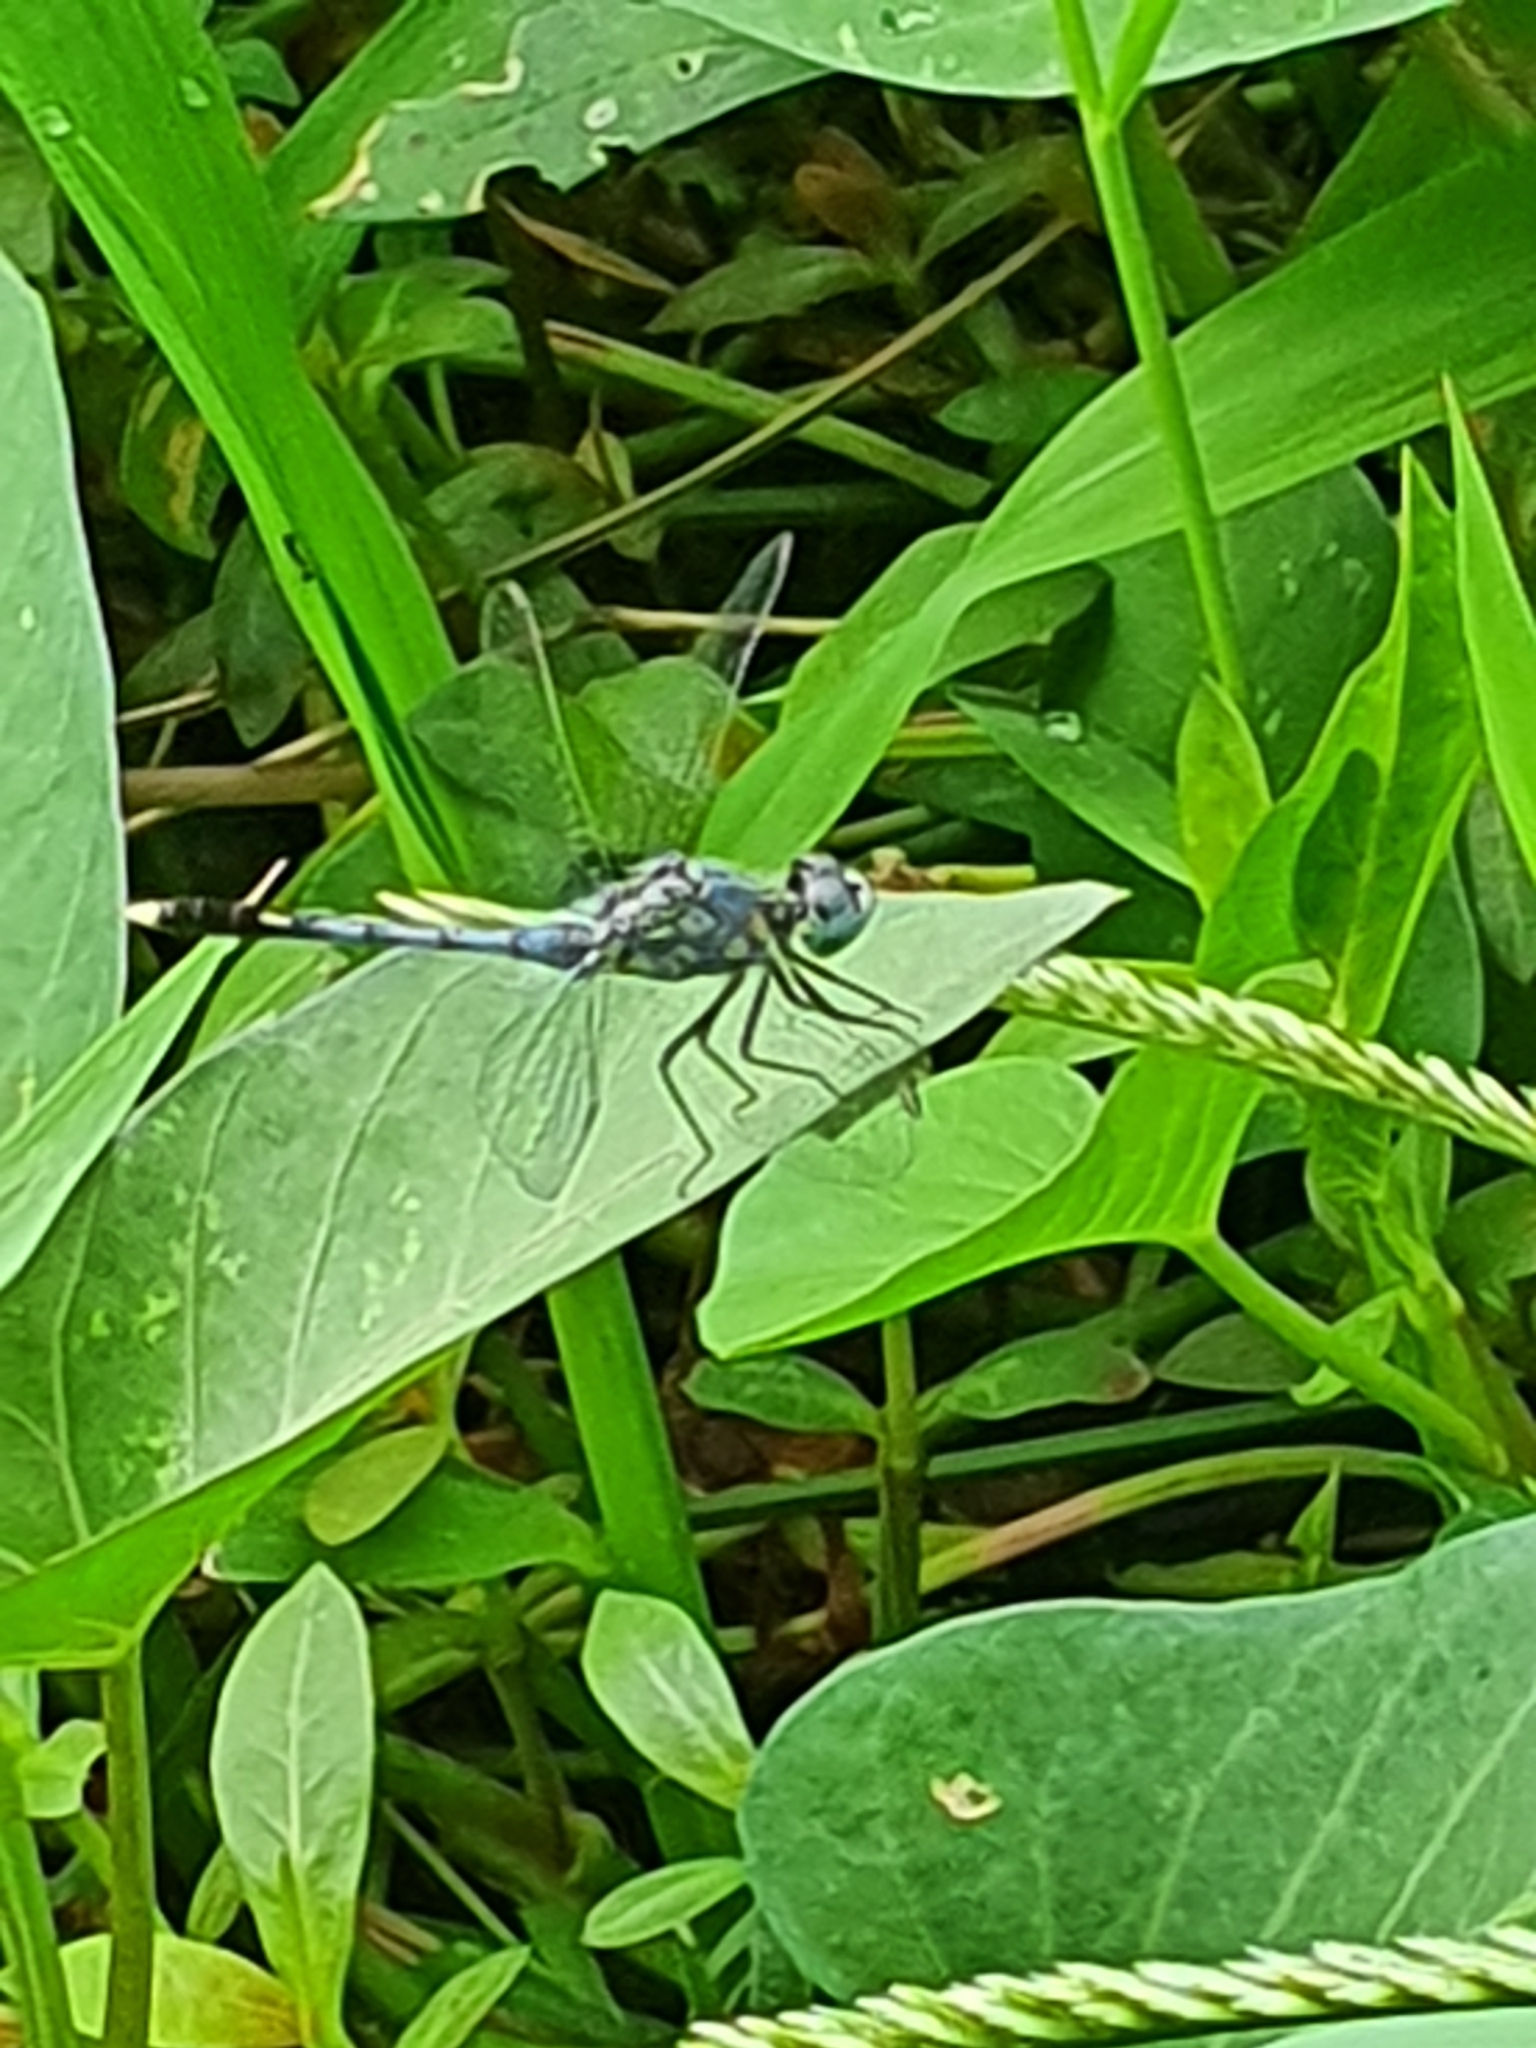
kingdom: Animalia
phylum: Arthropoda
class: Insecta
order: Odonata
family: Libellulidae
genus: Diplacodes
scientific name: Diplacodes trivialis
